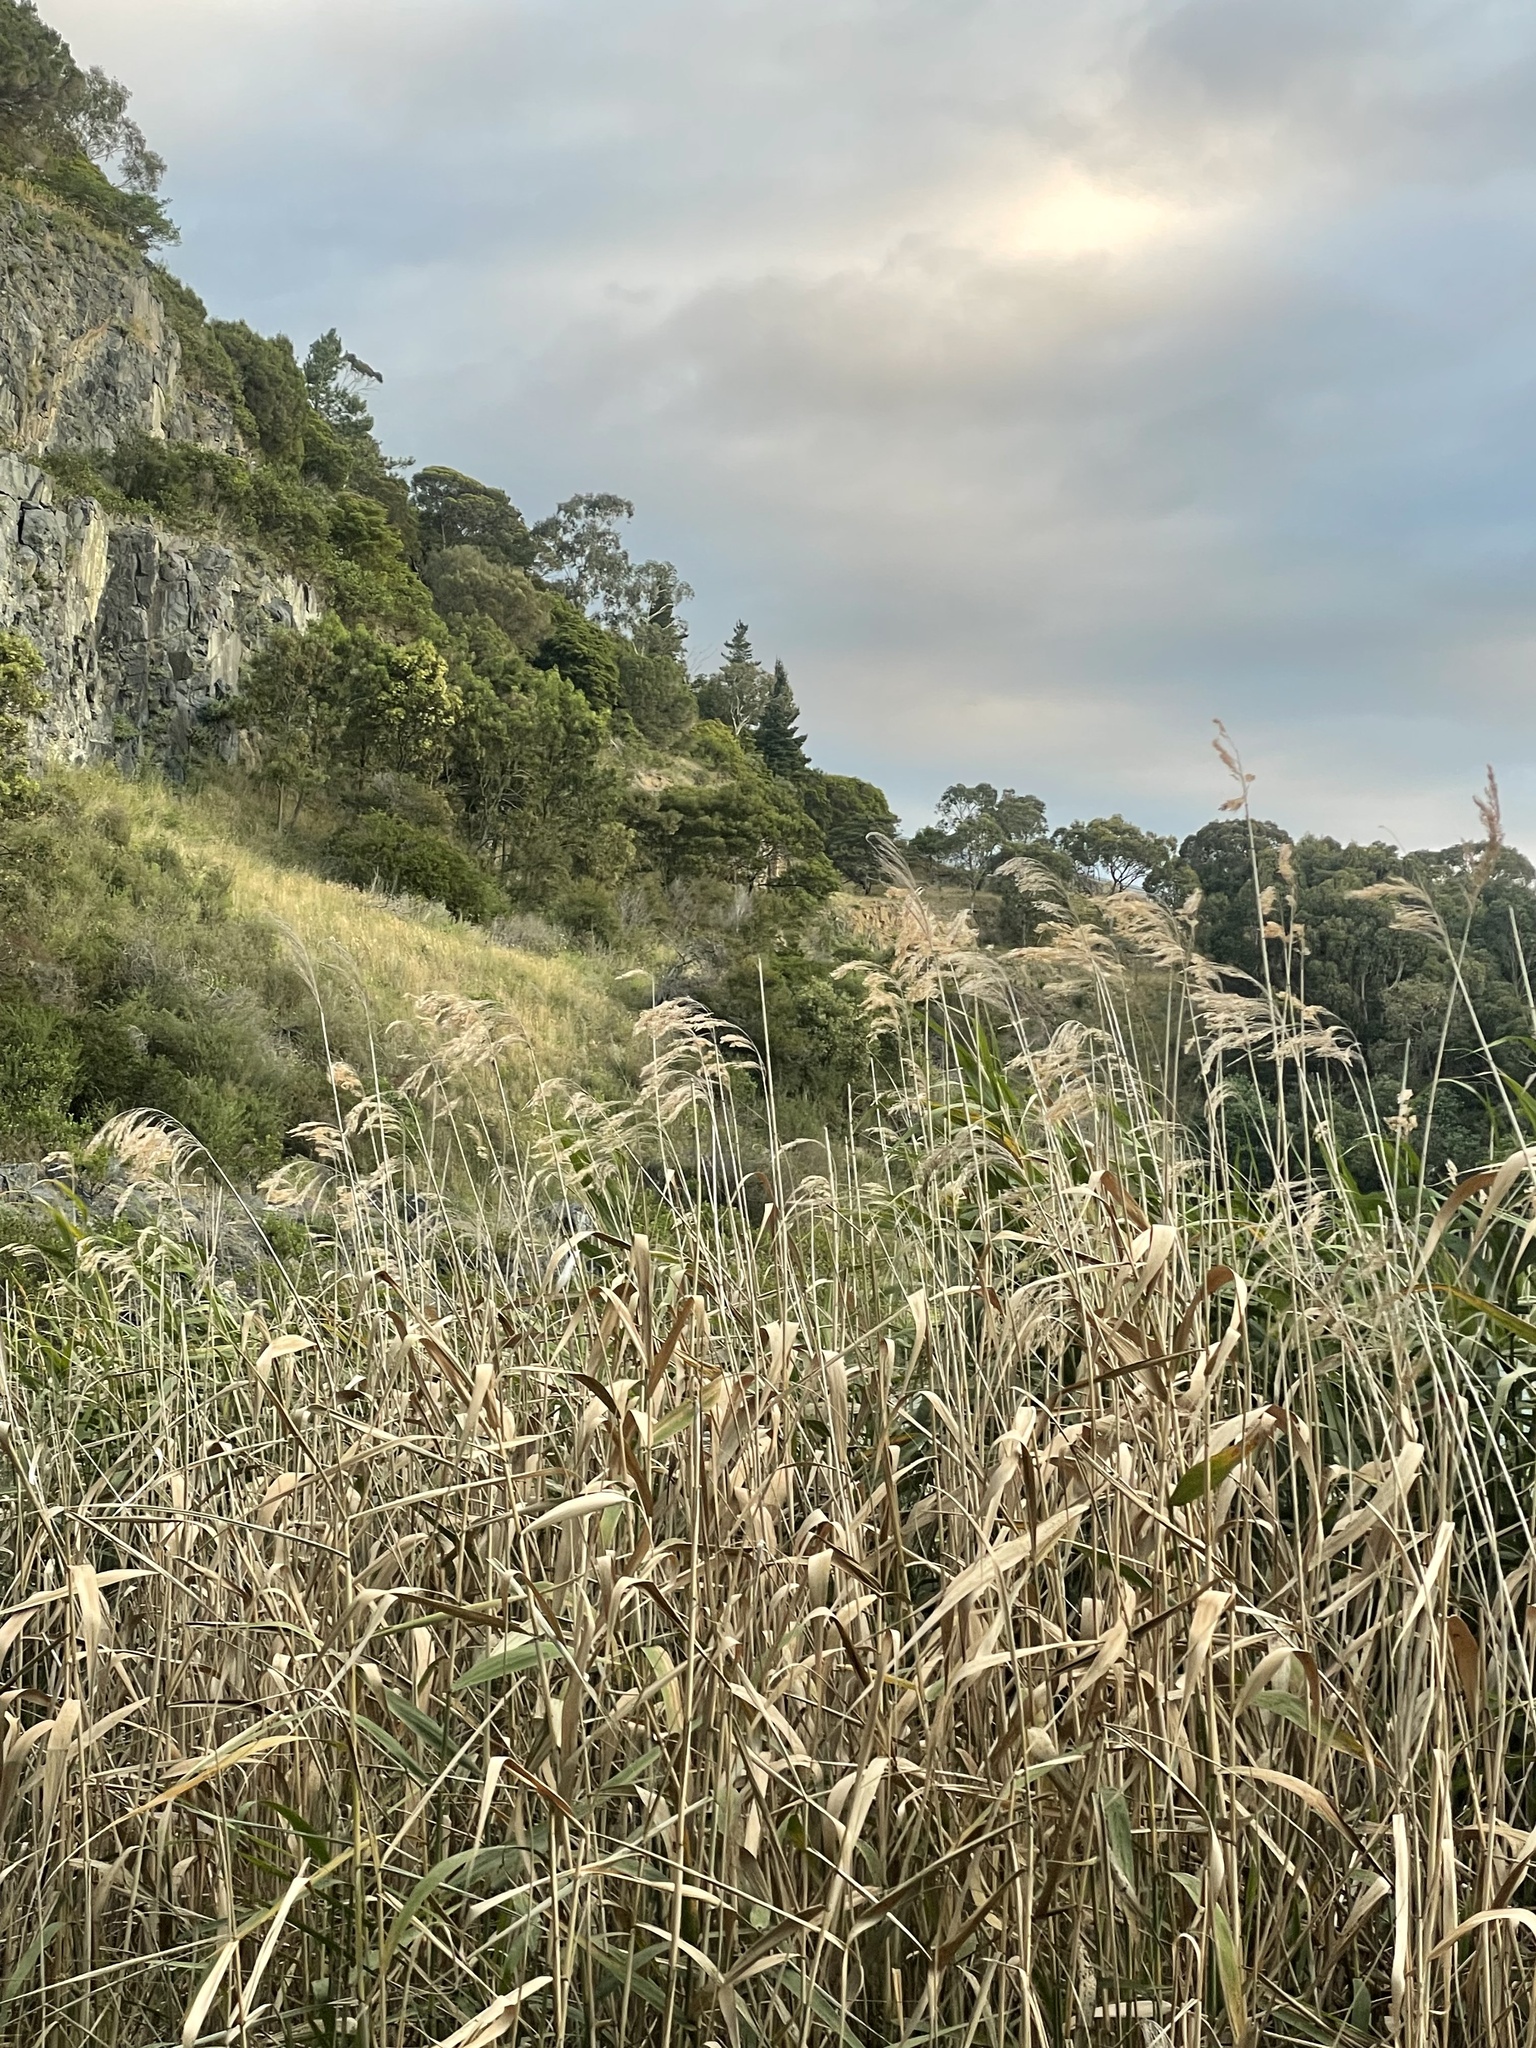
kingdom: Plantae
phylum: Tracheophyta
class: Liliopsida
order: Poales
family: Poaceae
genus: Phragmites
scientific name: Phragmites australis
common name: Common reed
